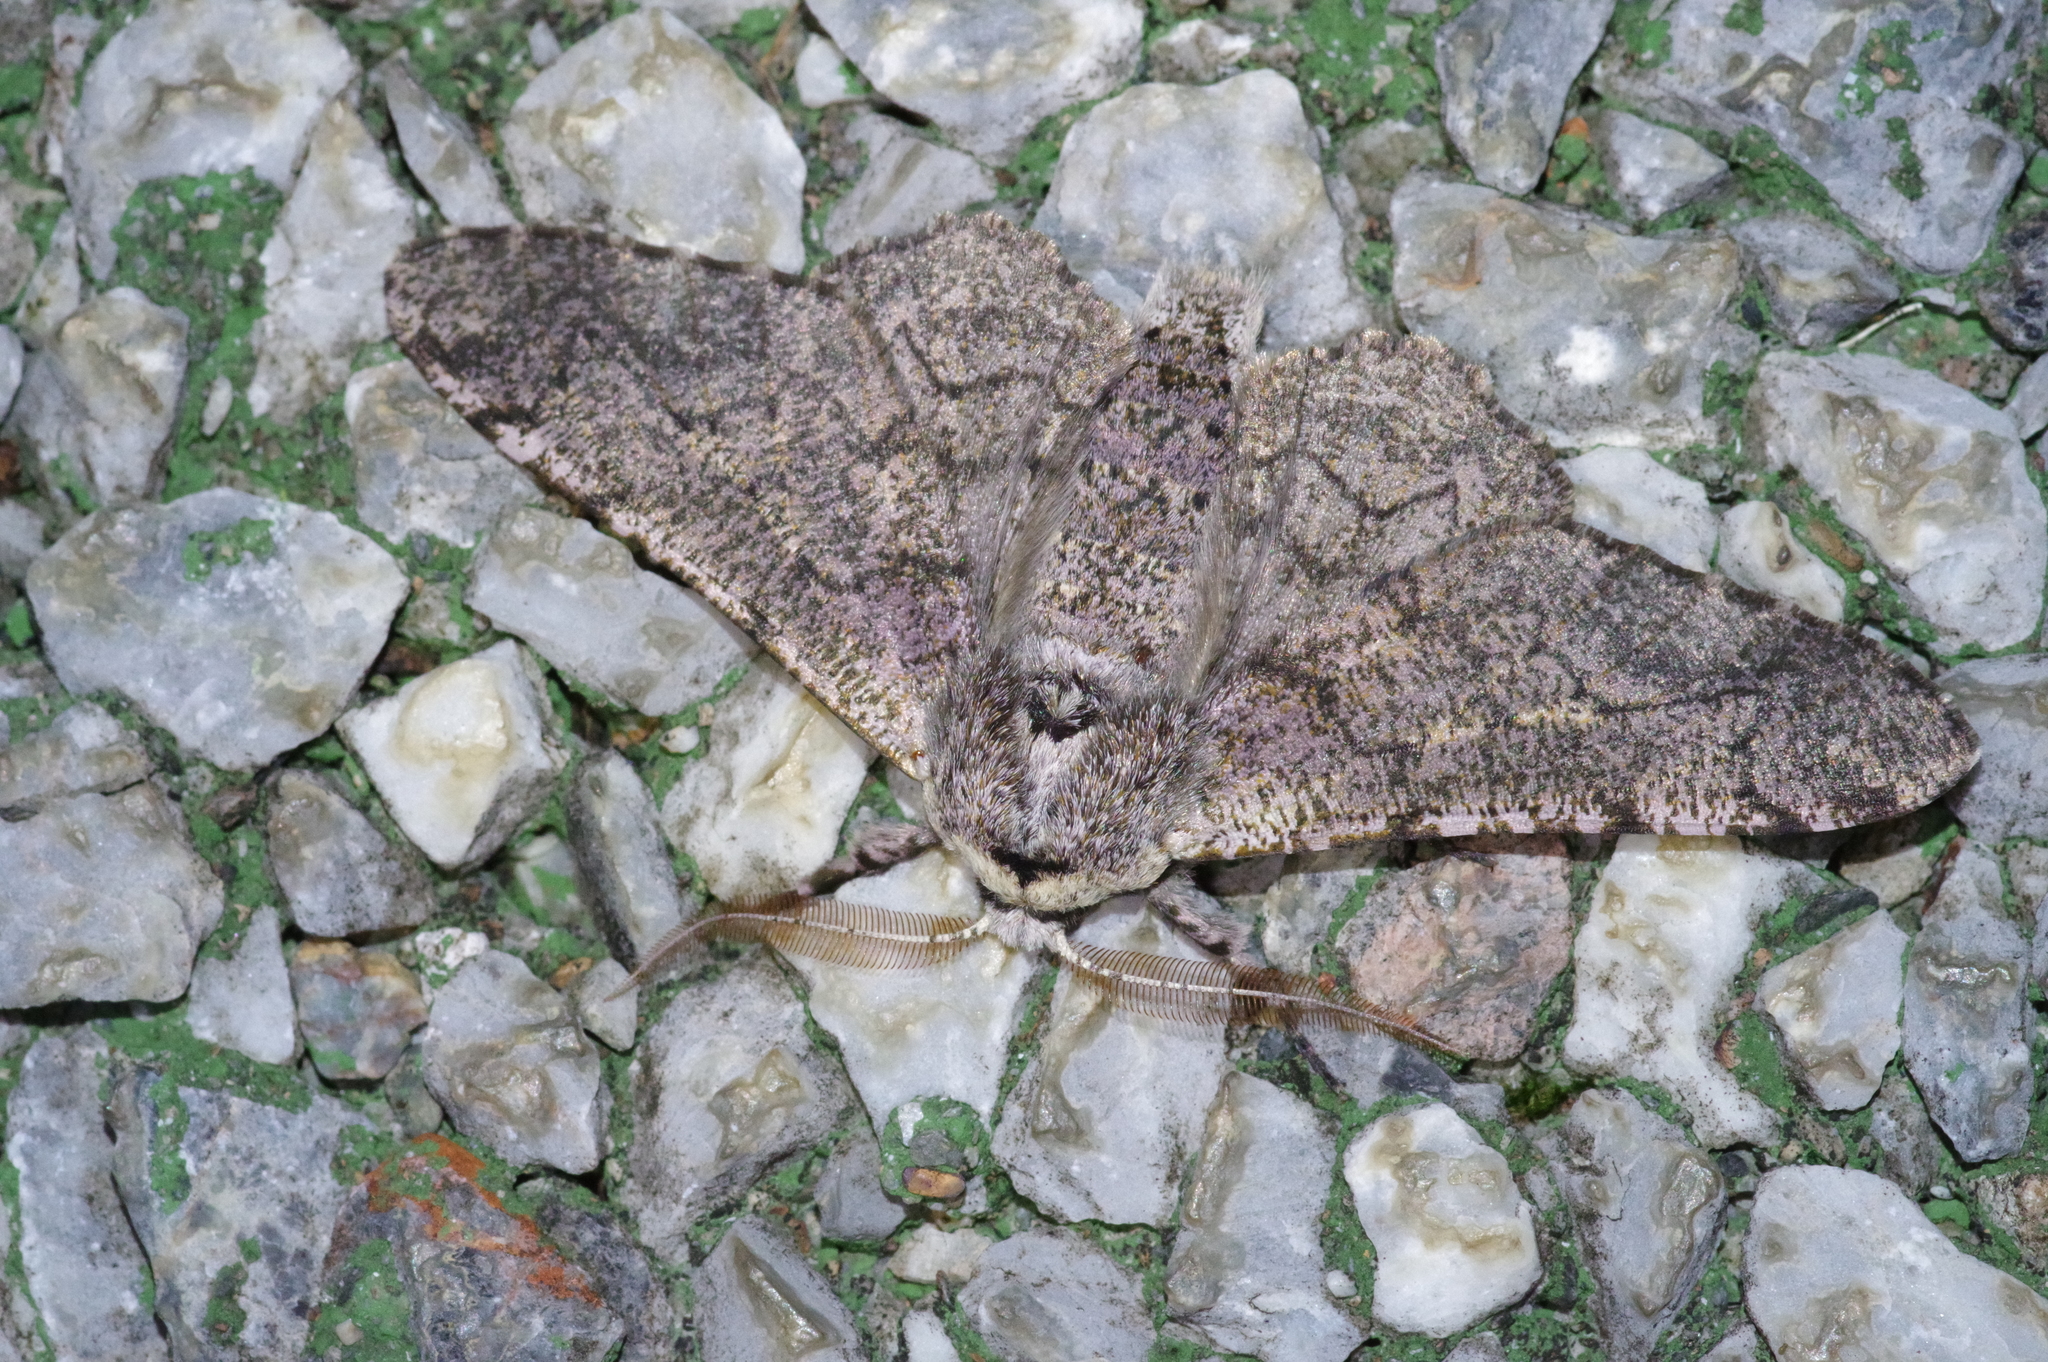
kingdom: Animalia
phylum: Arthropoda
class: Insecta
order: Lepidoptera
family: Geometridae
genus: Biston
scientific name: Biston robustum
